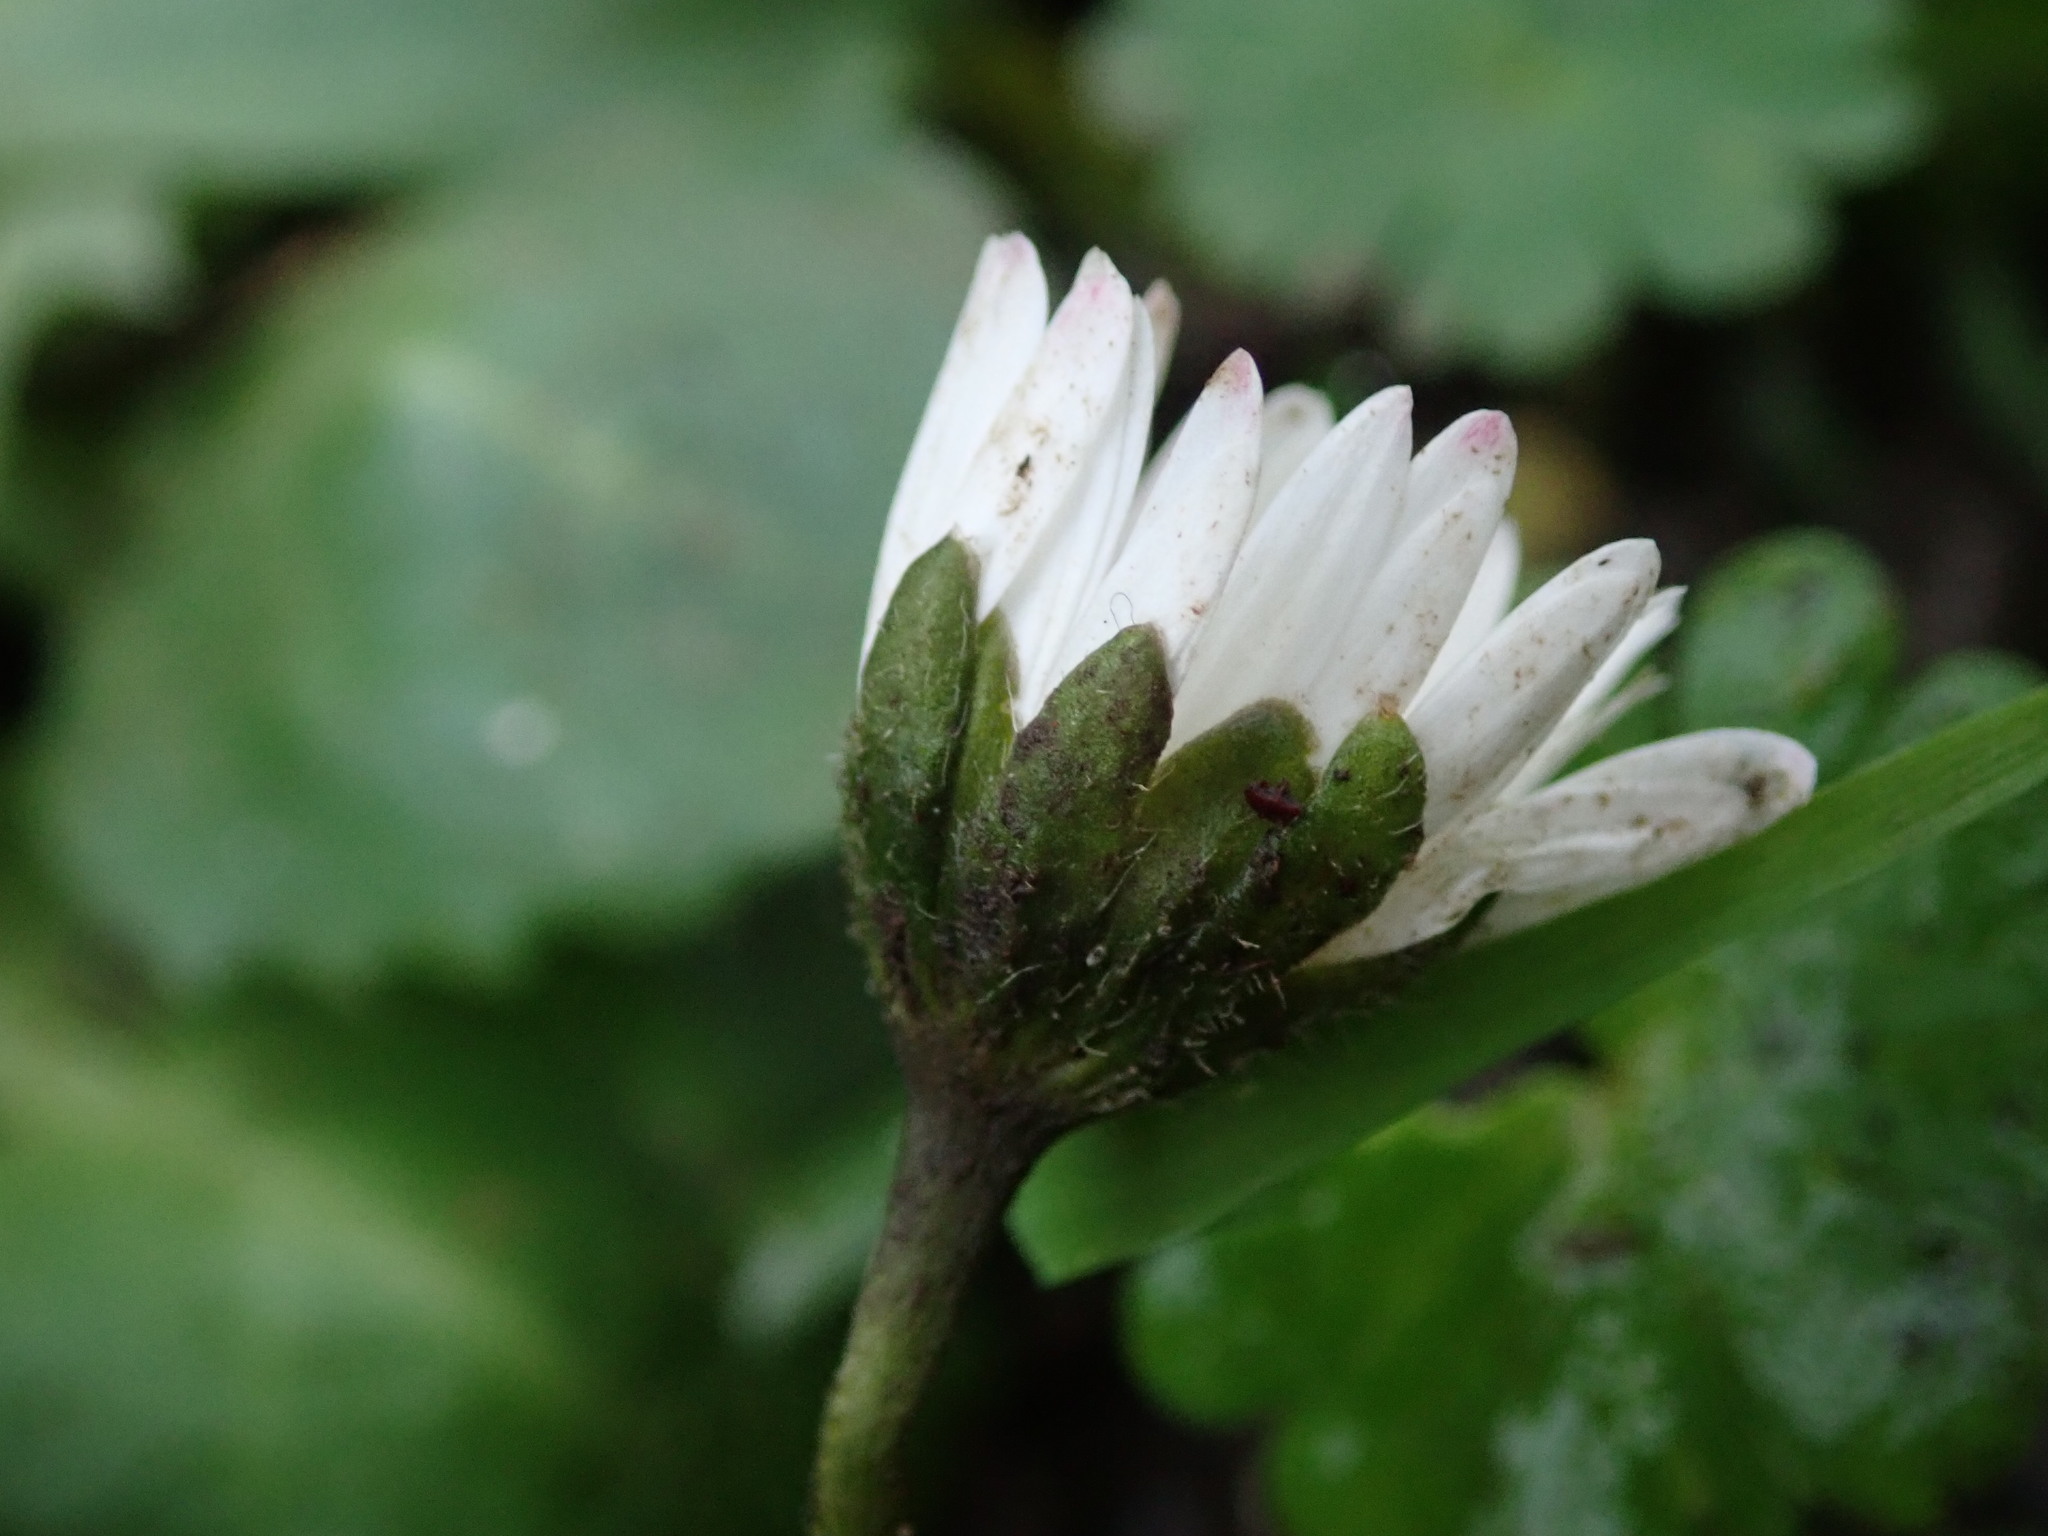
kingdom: Plantae
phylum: Tracheophyta
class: Magnoliopsida
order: Asterales
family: Asteraceae
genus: Bellis
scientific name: Bellis perennis
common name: Lawndaisy
